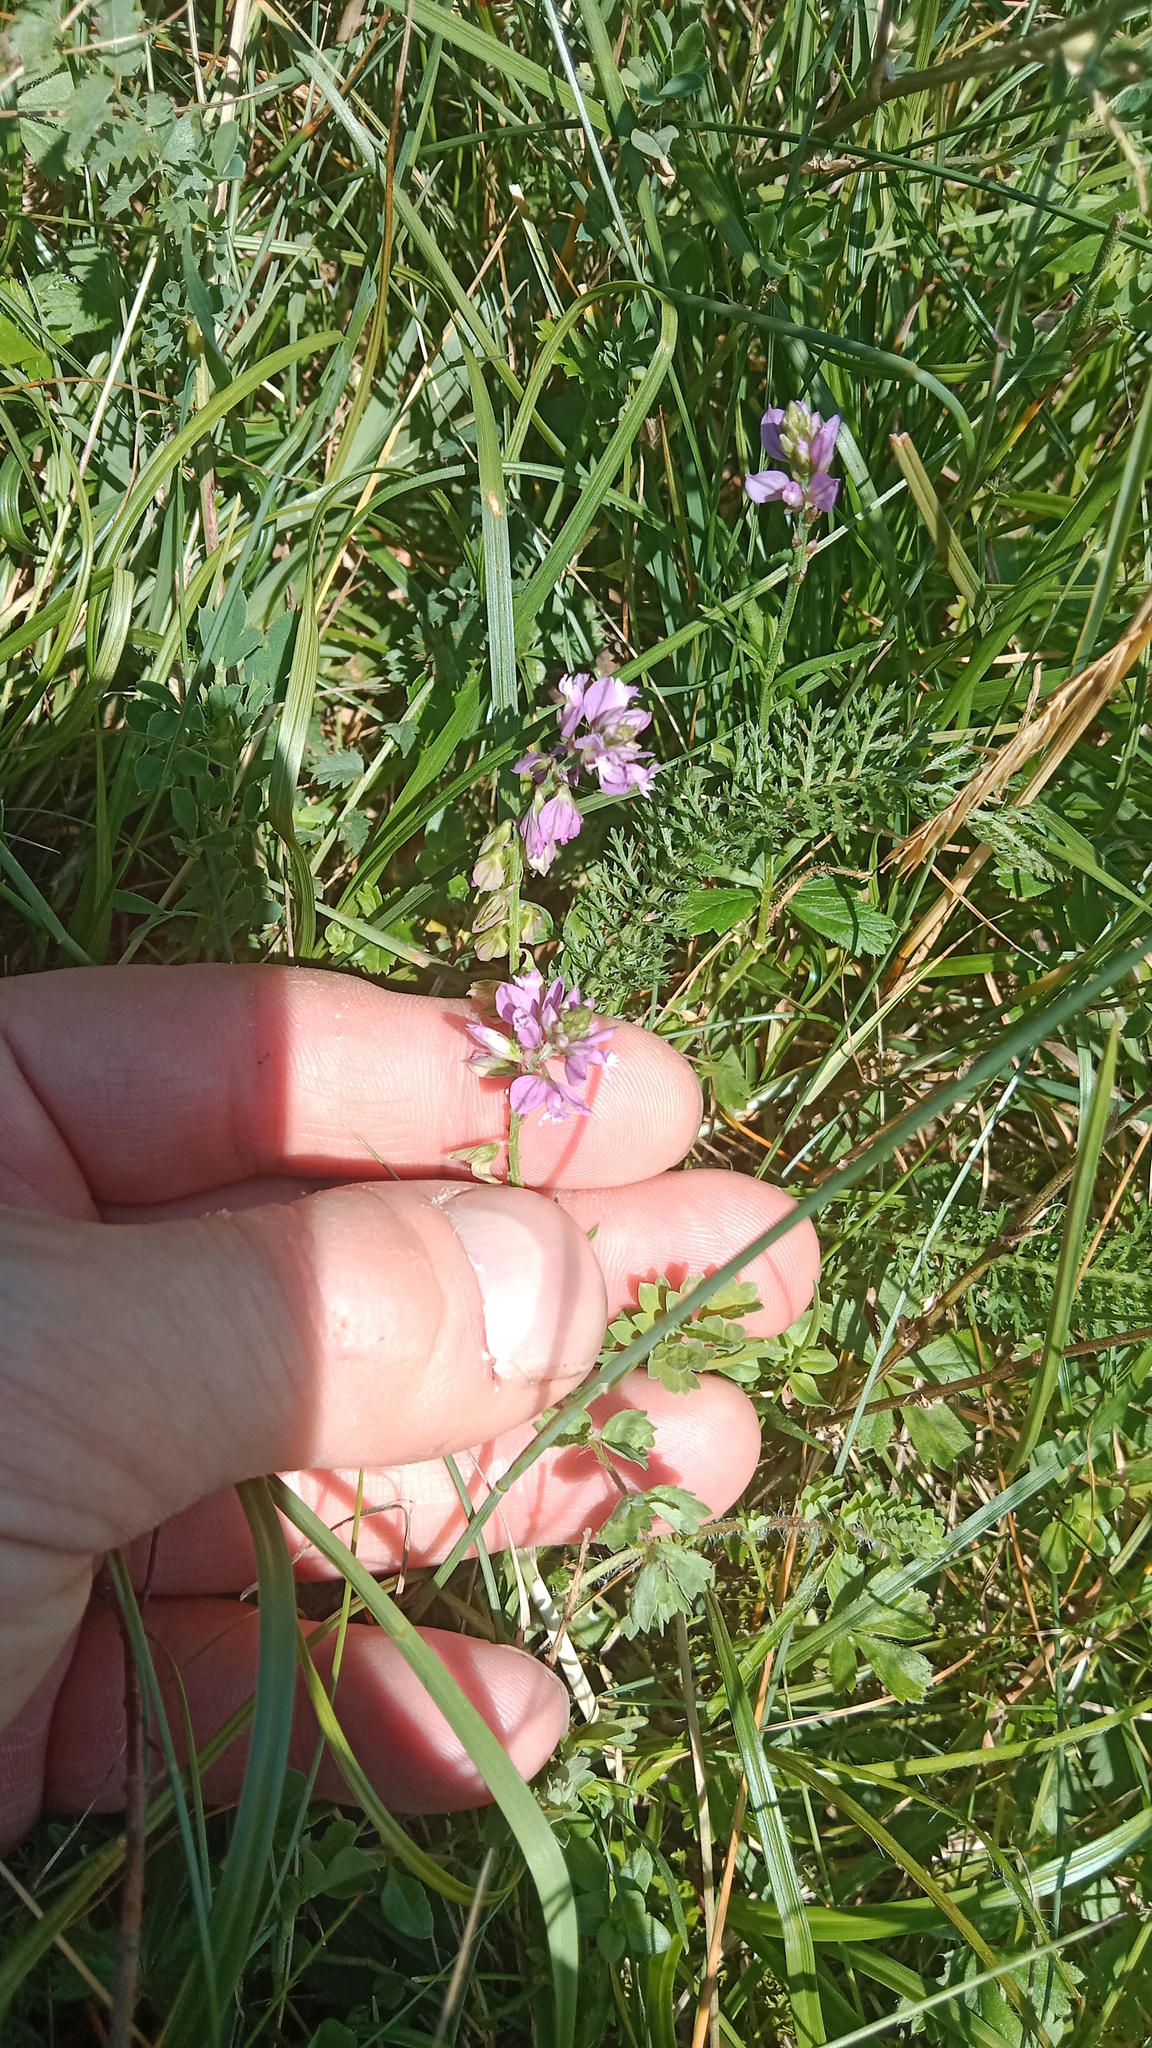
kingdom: Plantae
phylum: Tracheophyta
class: Magnoliopsida
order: Fabales
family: Fabaceae
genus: Coronilla
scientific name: Coronilla varia
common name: Crownvetch
